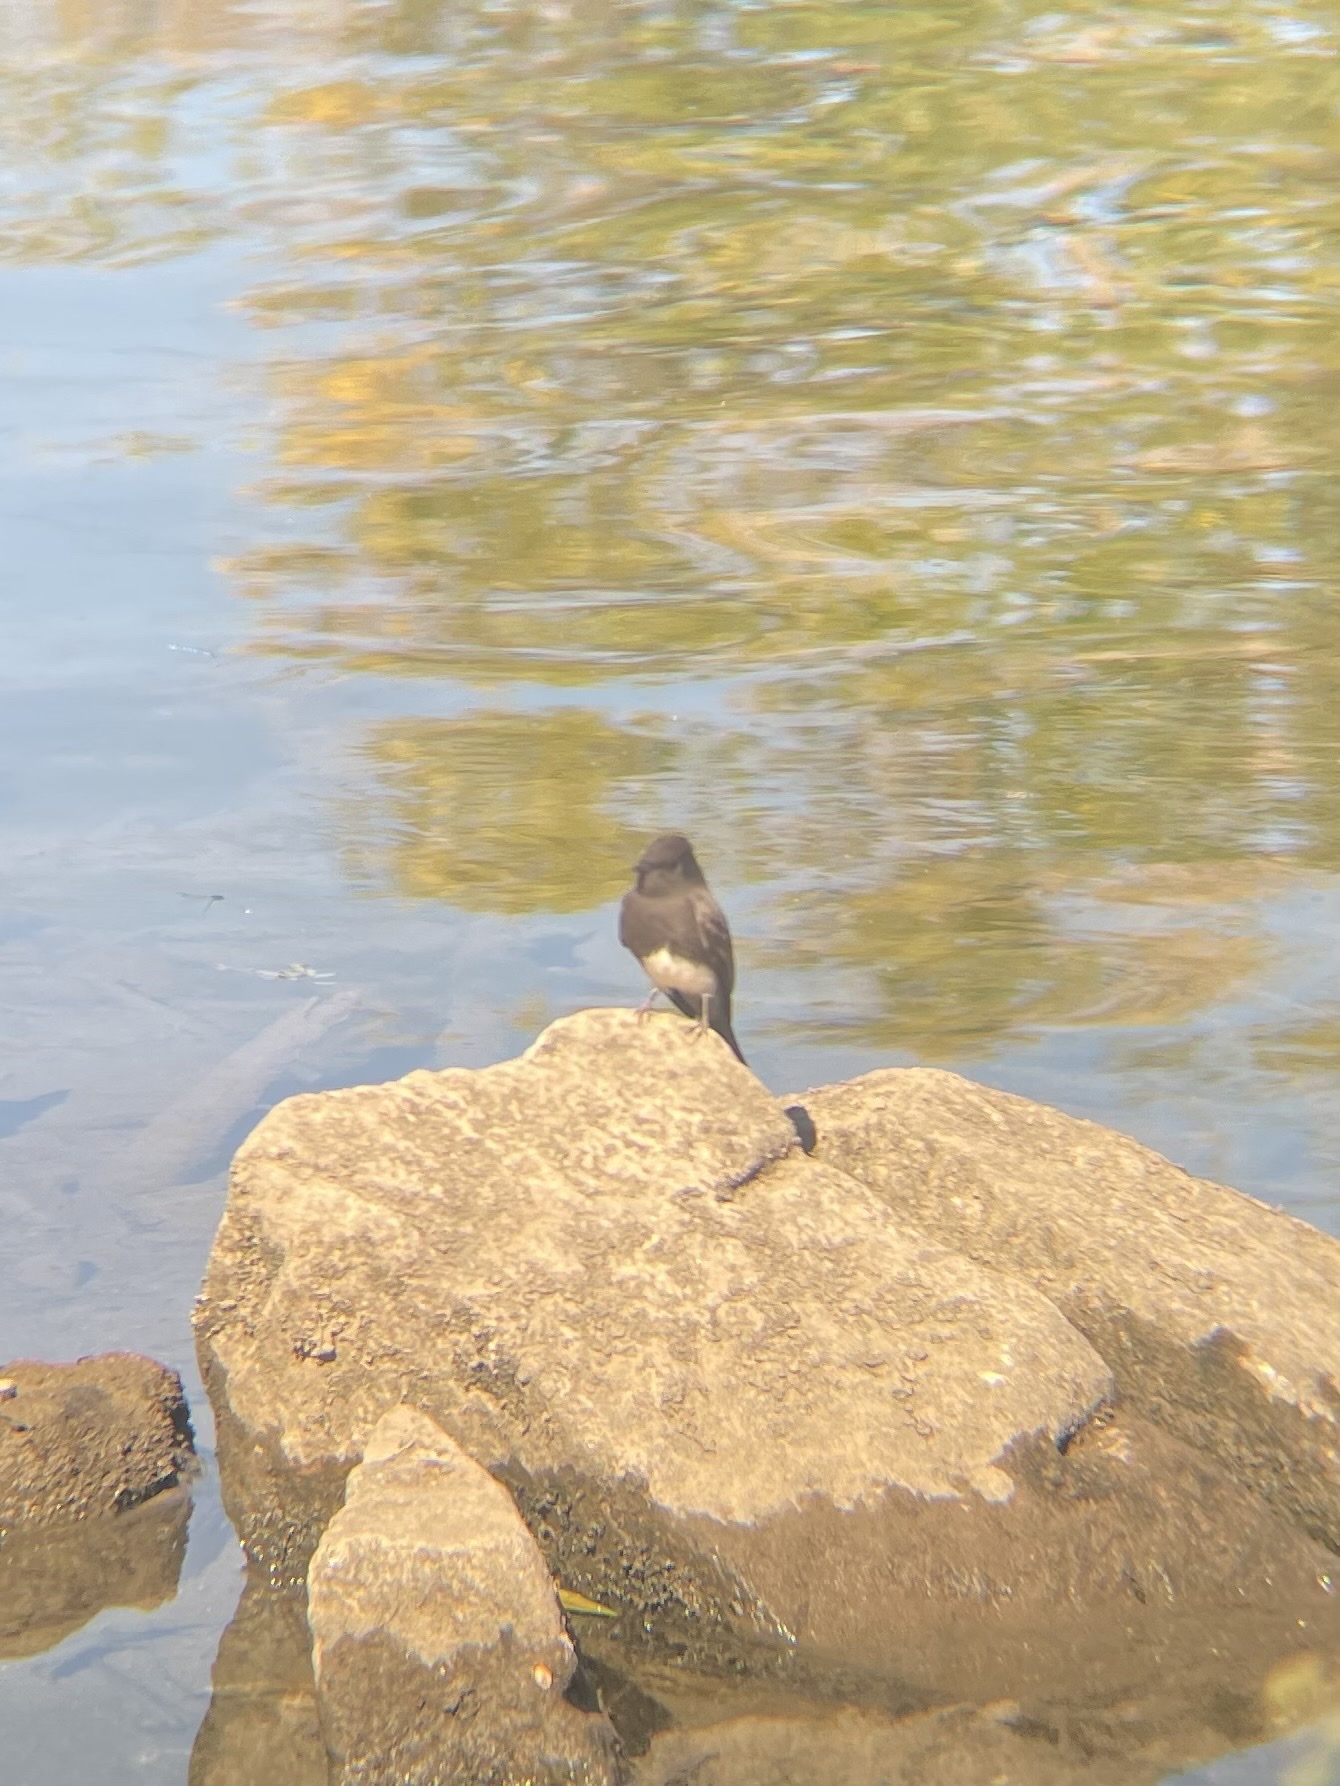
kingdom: Animalia
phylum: Chordata
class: Aves
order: Passeriformes
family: Tyrannidae
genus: Sayornis
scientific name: Sayornis nigricans
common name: Black phoebe
